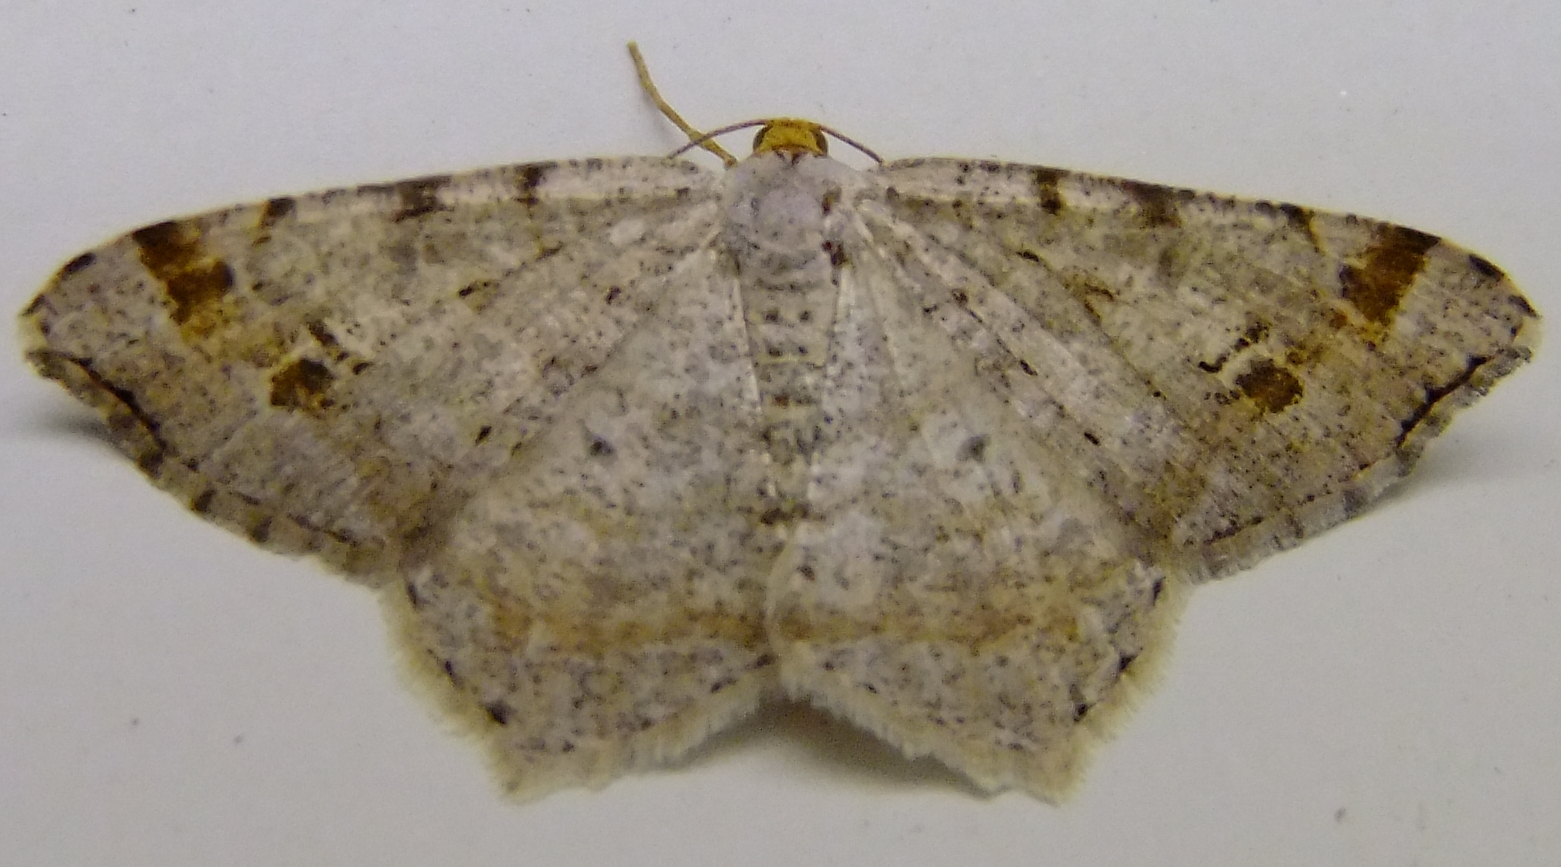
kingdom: Animalia
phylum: Arthropoda
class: Insecta
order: Lepidoptera
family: Geometridae
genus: Macaria
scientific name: Macaria bisignata
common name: Red-headed inchworm
